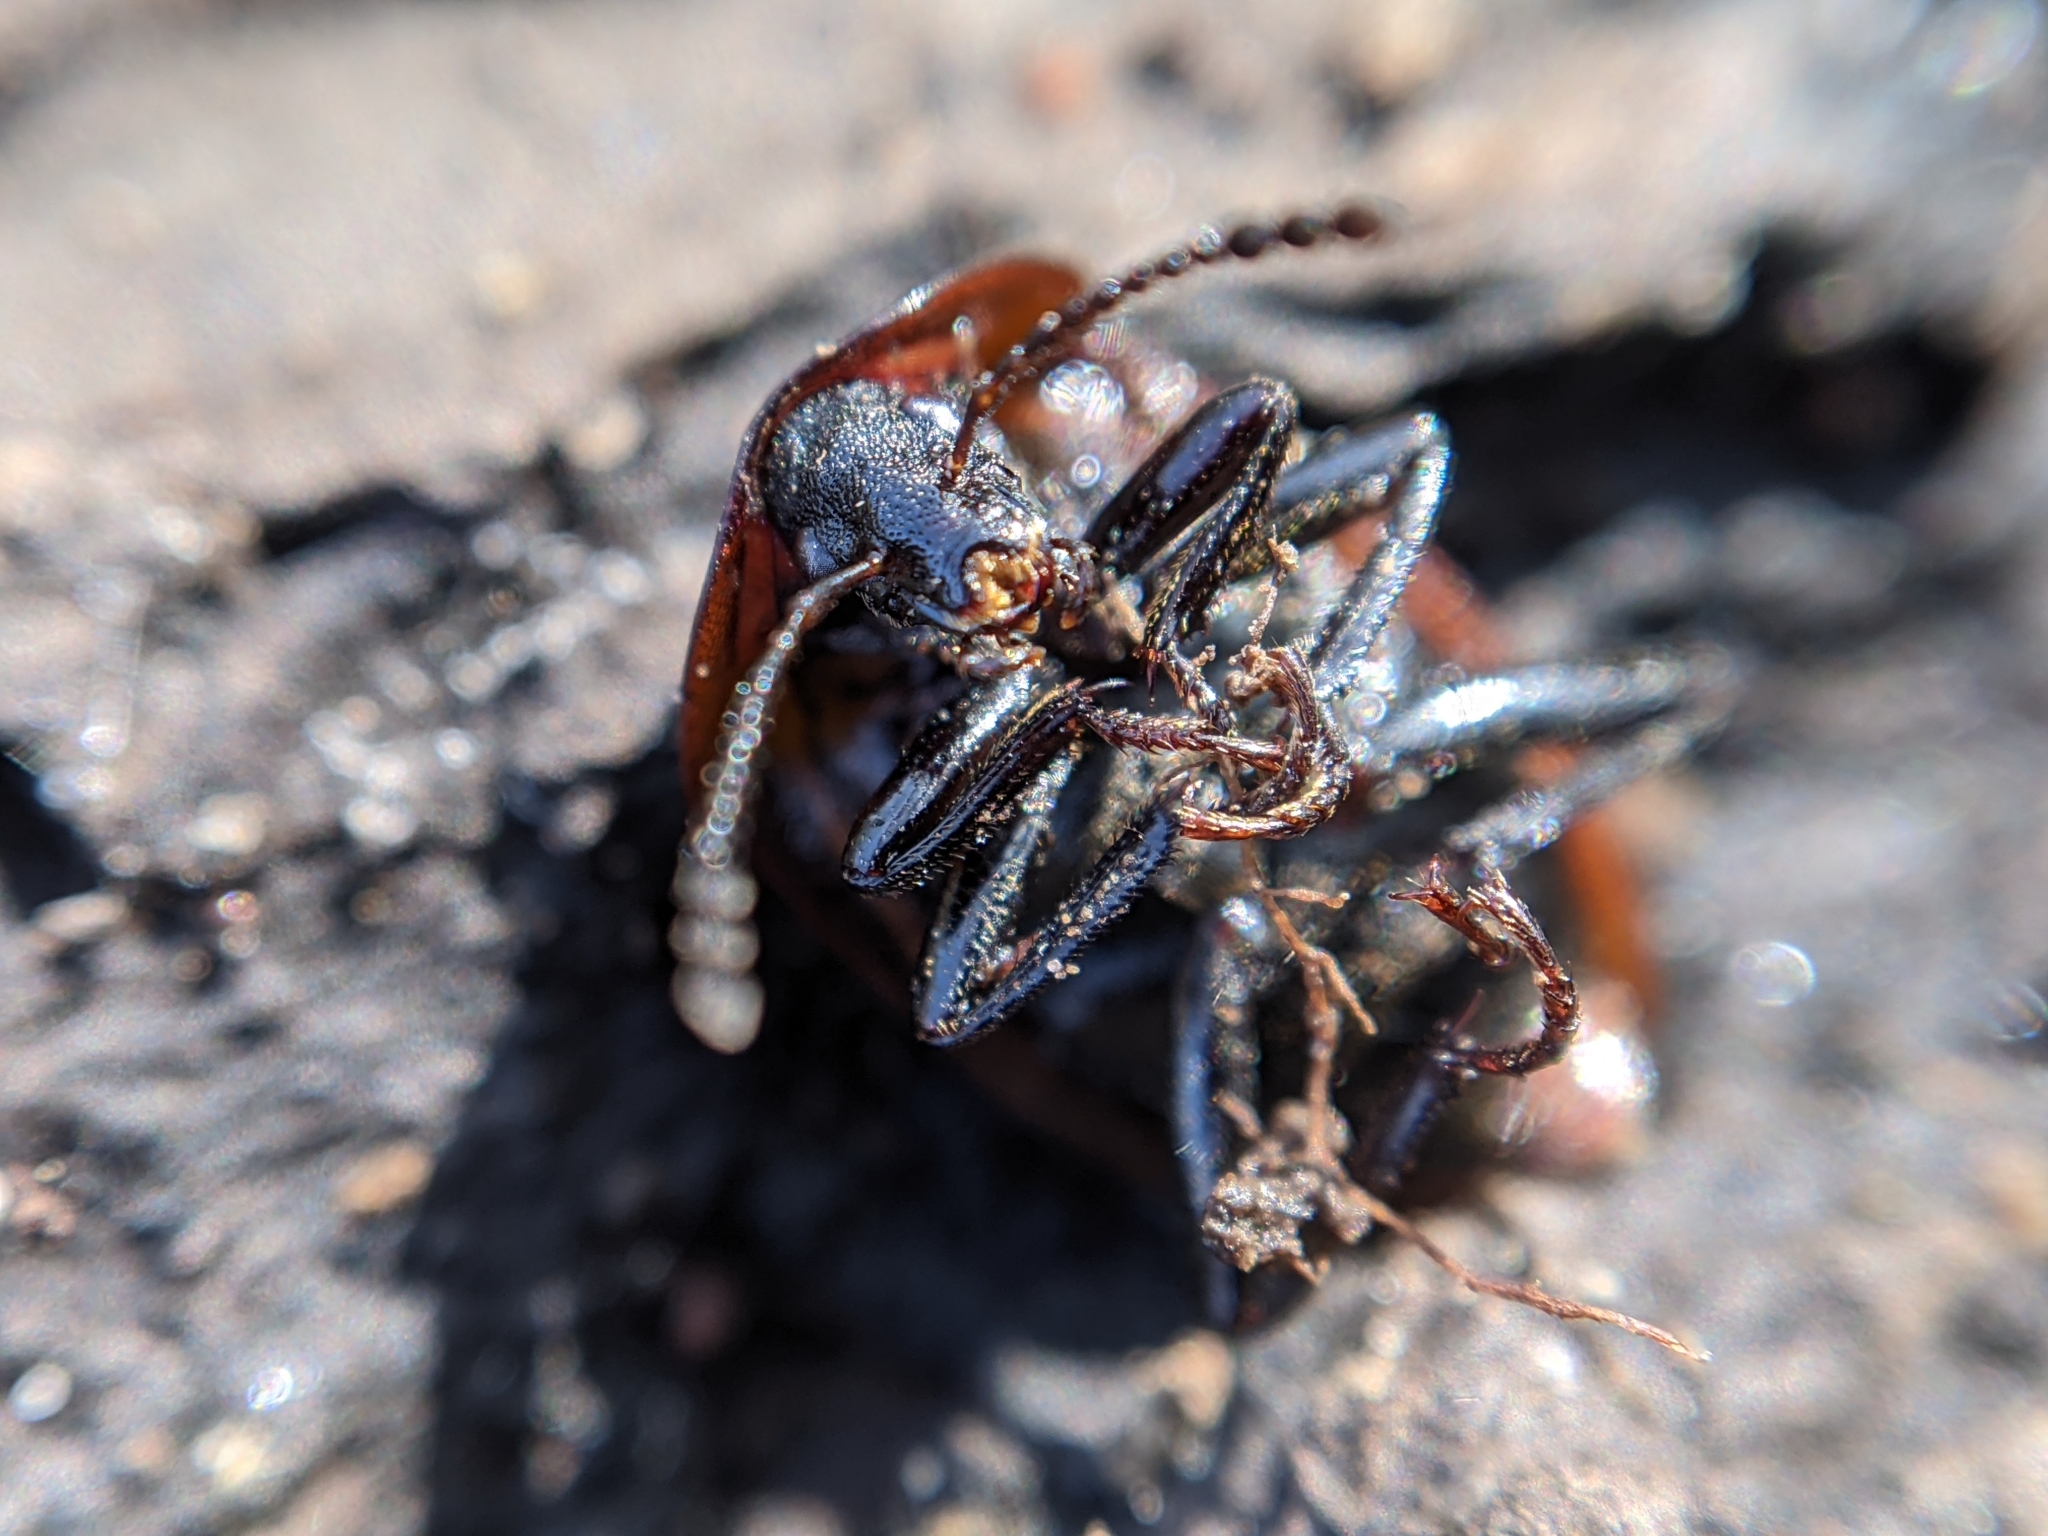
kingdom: Animalia
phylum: Arthropoda
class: Insecta
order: Coleoptera
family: Staphylinidae
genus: Silpha
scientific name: Silpha atrata
